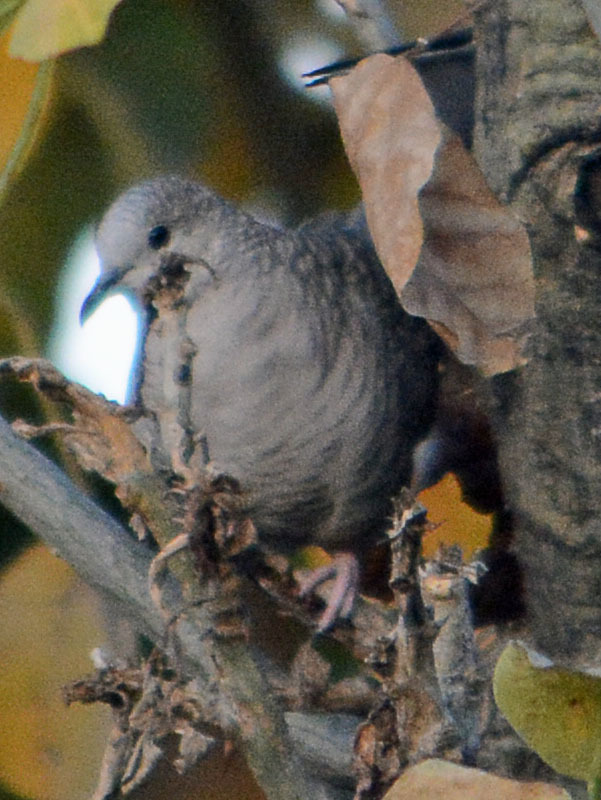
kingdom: Animalia
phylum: Chordata
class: Aves
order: Columbiformes
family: Columbidae
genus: Columbina
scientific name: Columbina inca
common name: Inca dove
